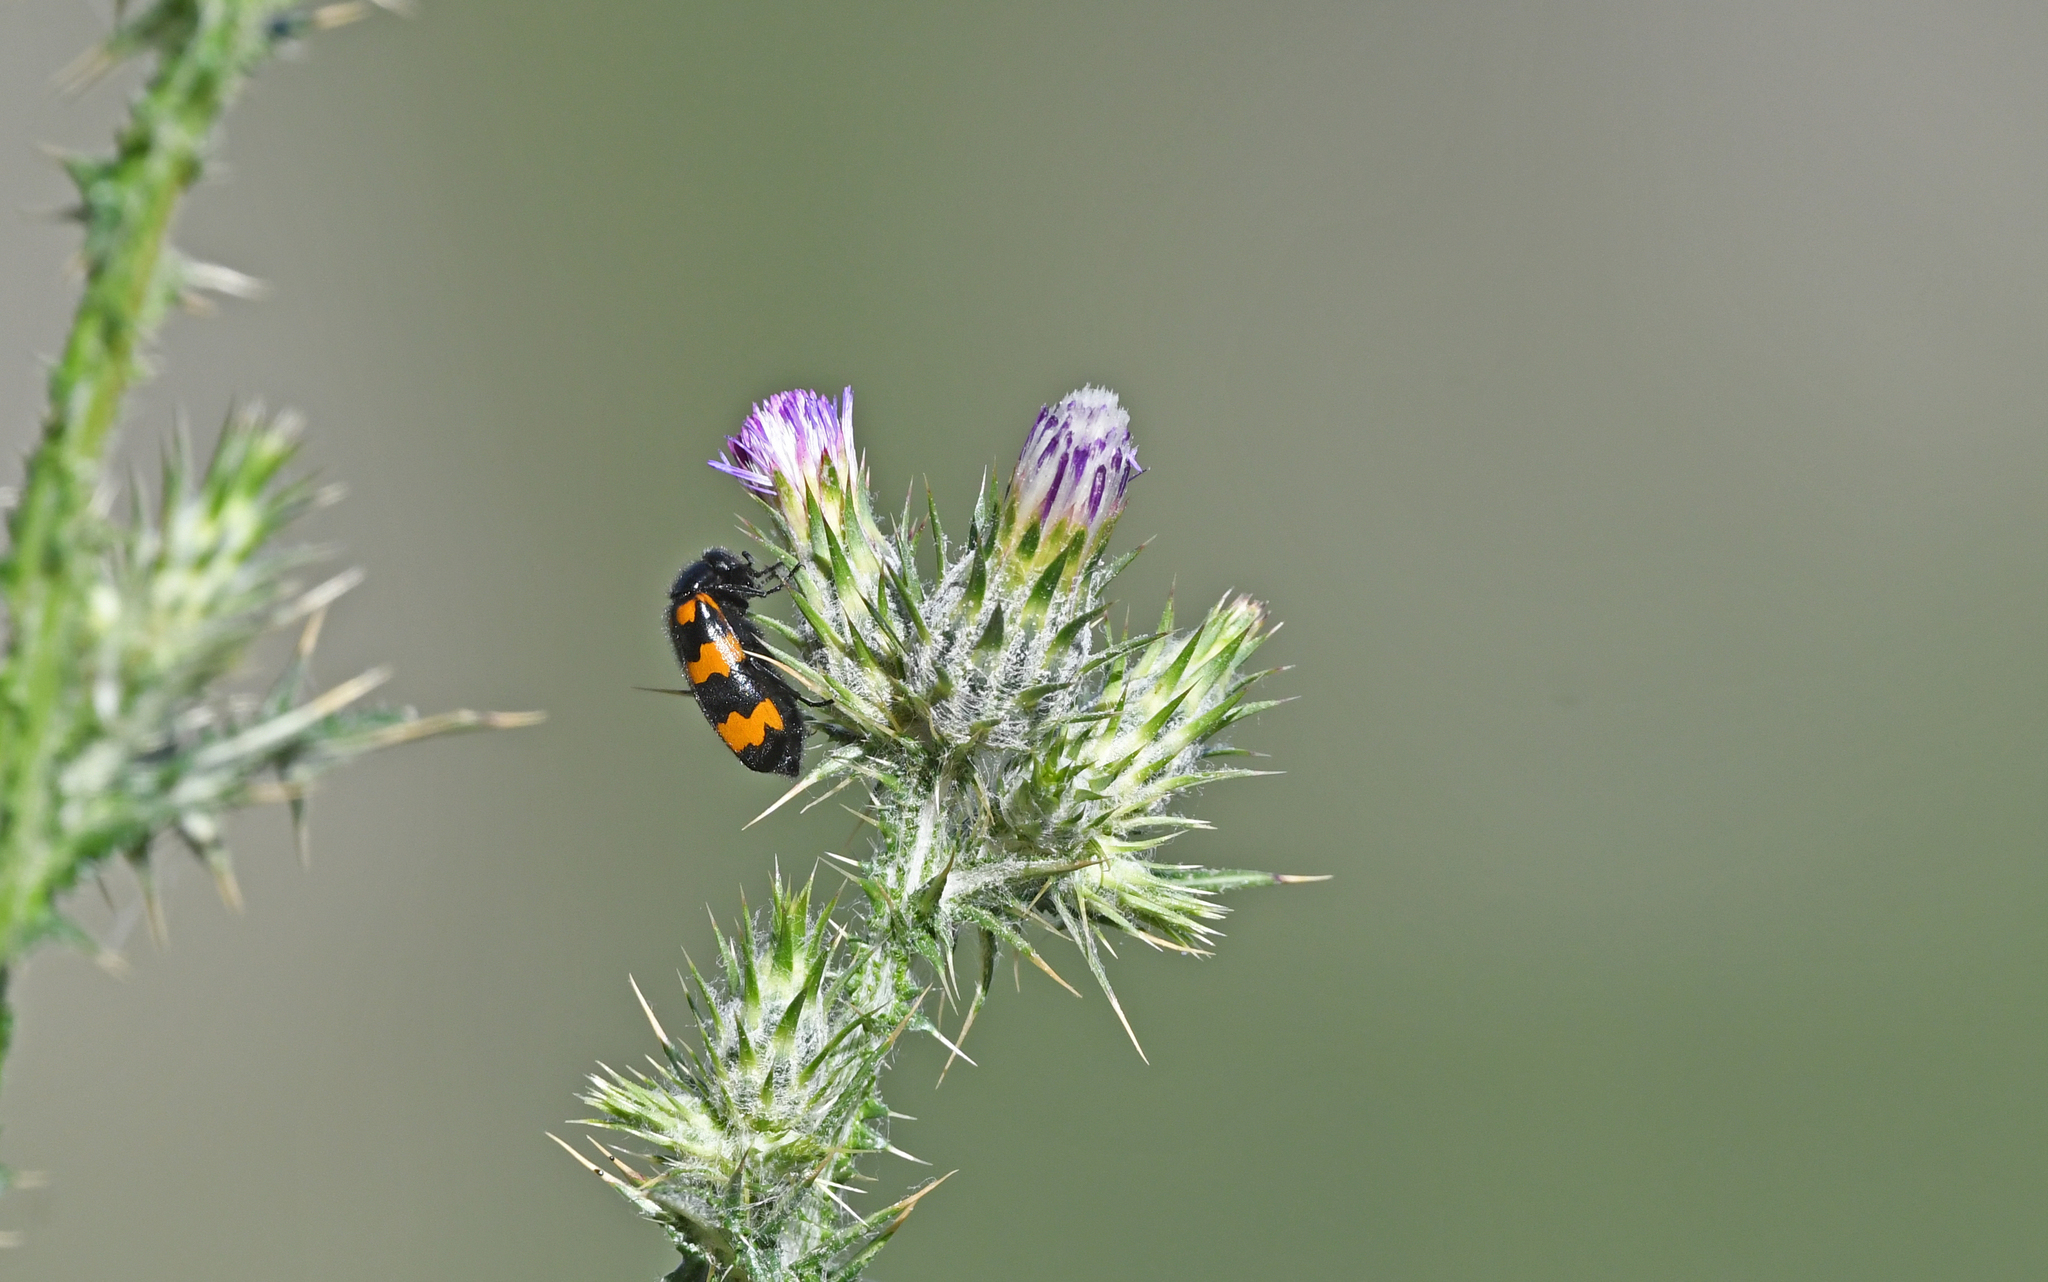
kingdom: Animalia
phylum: Arthropoda
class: Insecta
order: Coleoptera
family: Meloidae
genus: Mylabris
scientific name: Mylabris variabilis
